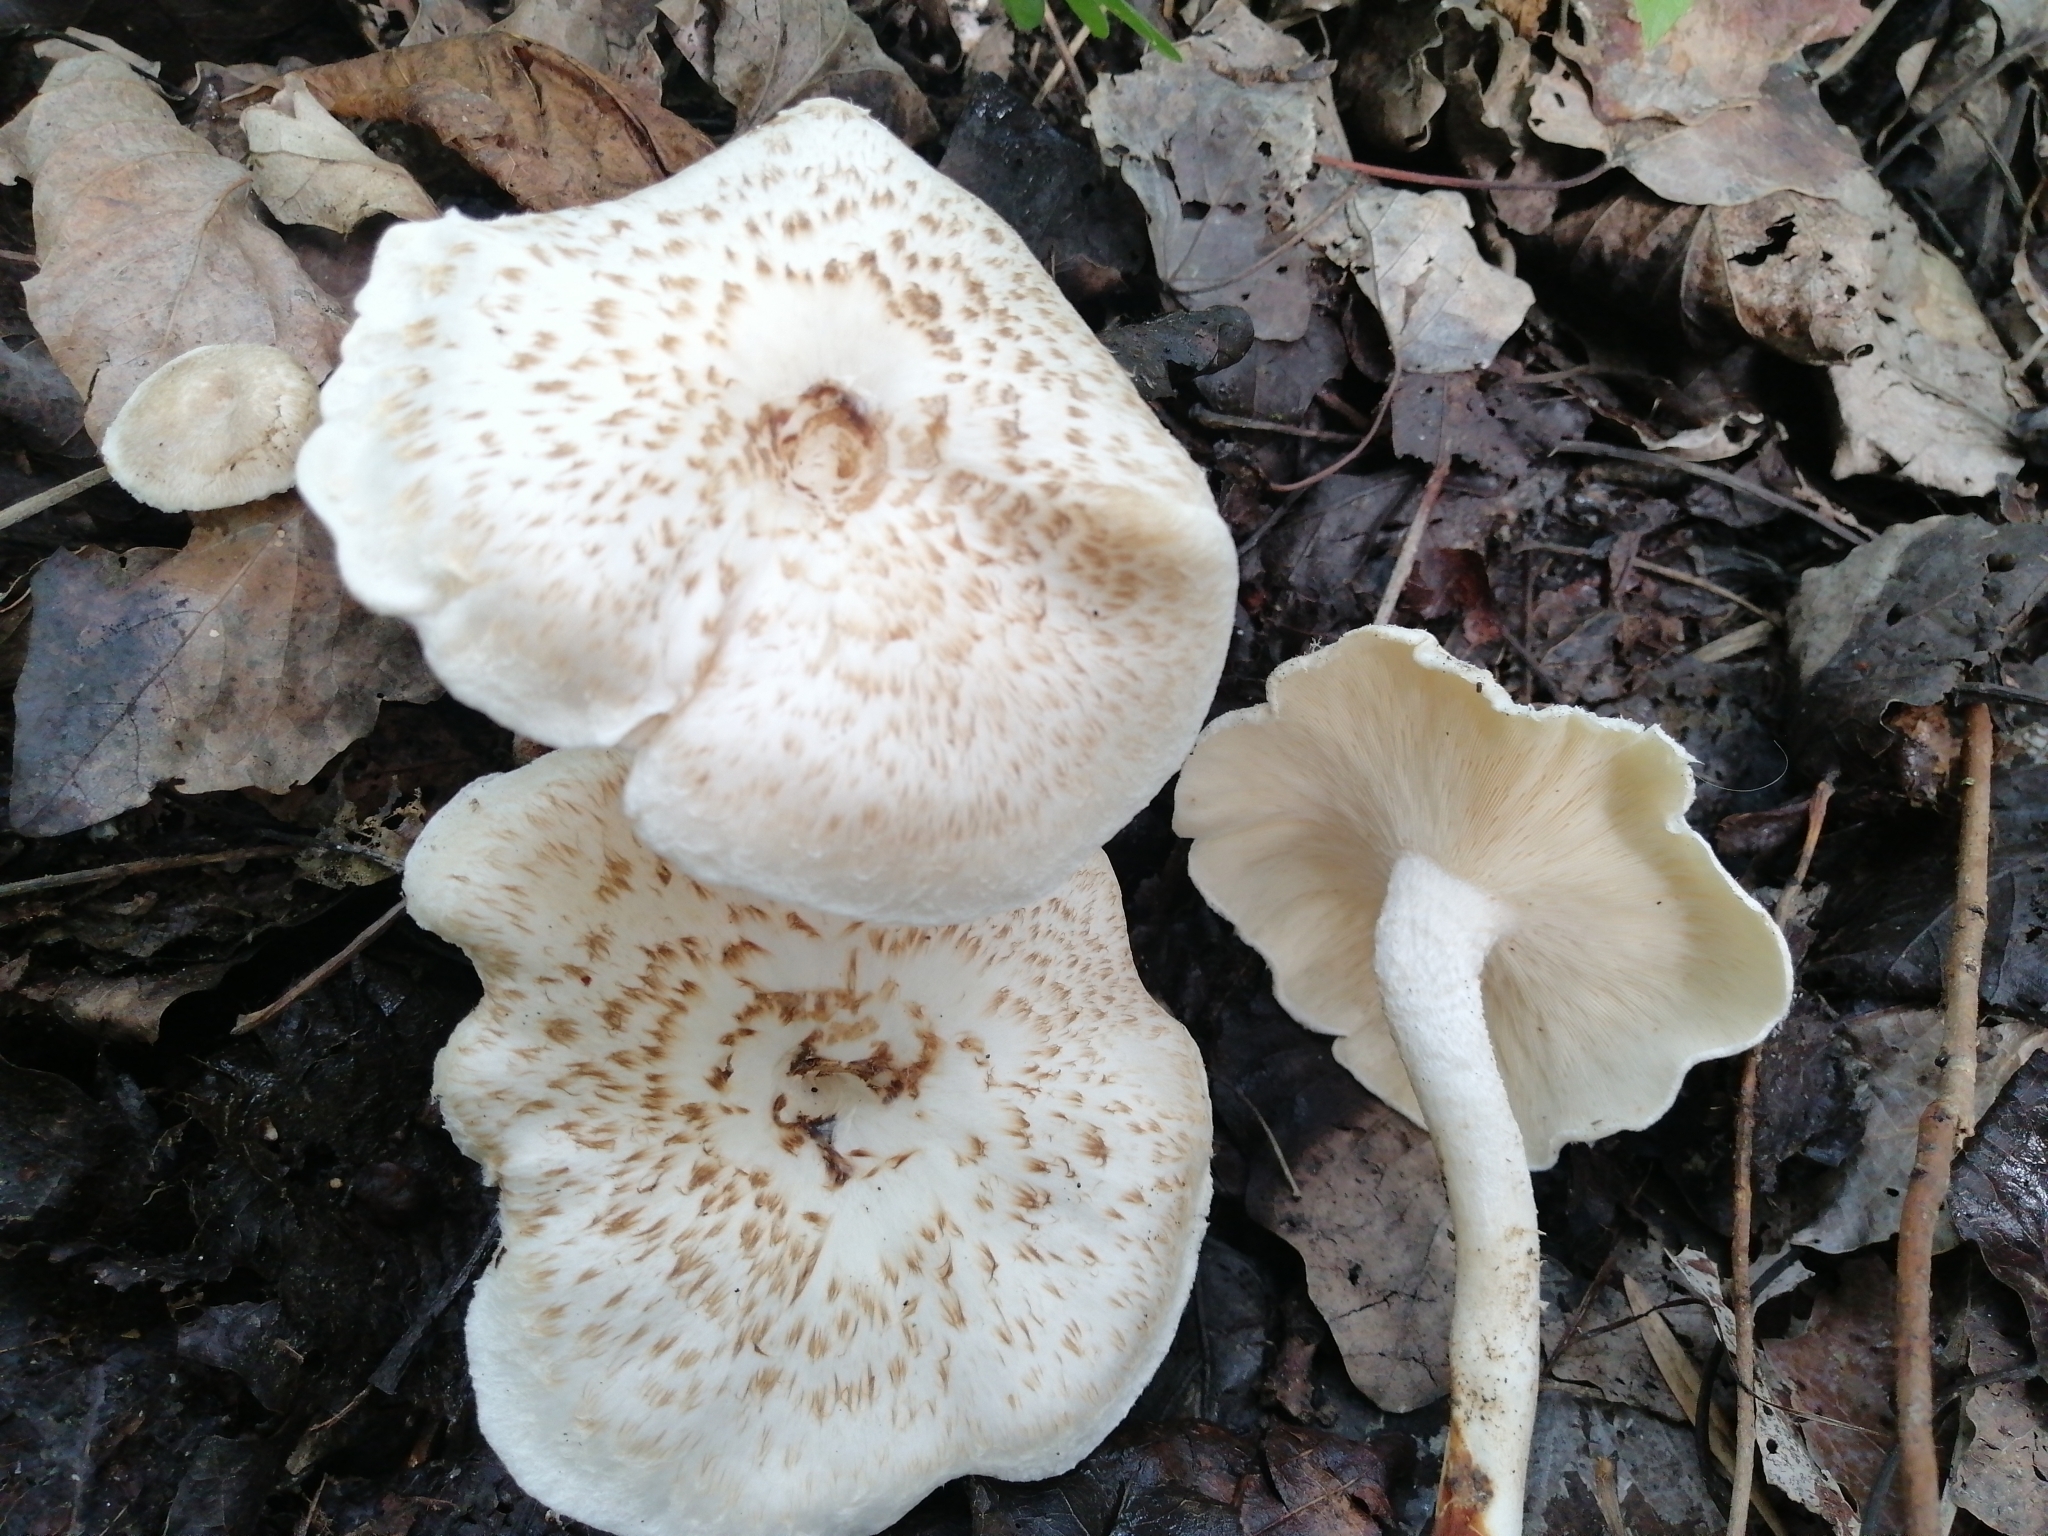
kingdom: Fungi
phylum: Basidiomycota
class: Agaricomycetes
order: Polyporales
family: Polyporaceae
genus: Lentinus
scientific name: Lentinus tigrinus
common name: Tiger sawgill
